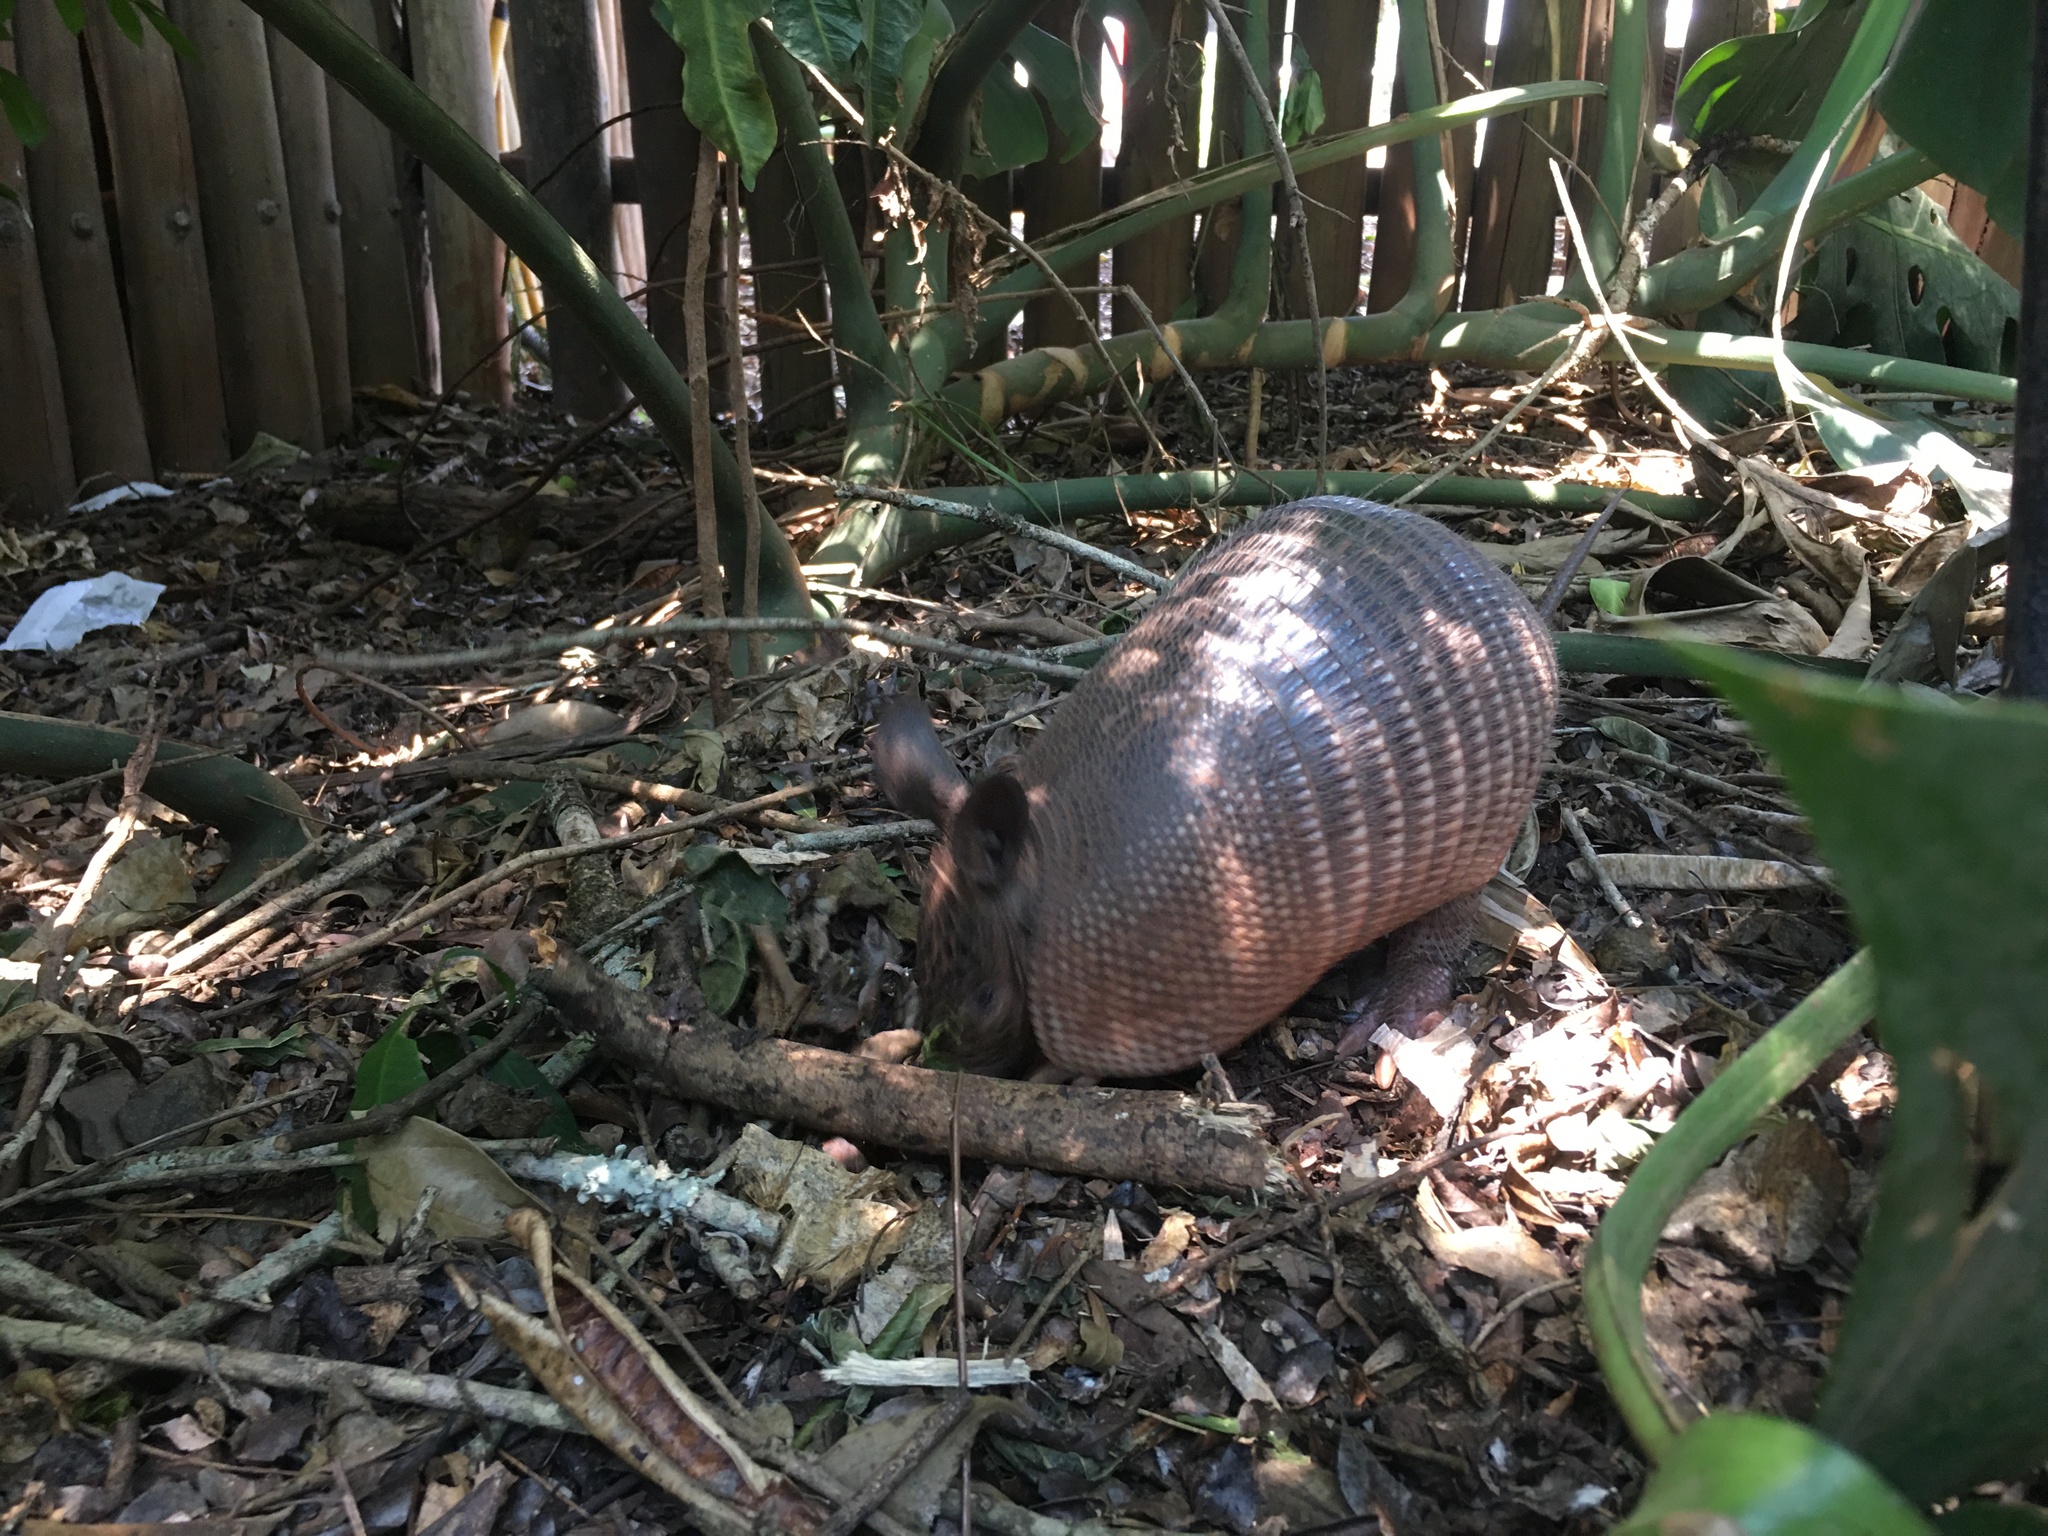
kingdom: Animalia
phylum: Chordata
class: Mammalia
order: Cingulata
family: Dasypodidae
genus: Dasypus
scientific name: Dasypus novemcinctus
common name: Nine-banded armadillo
